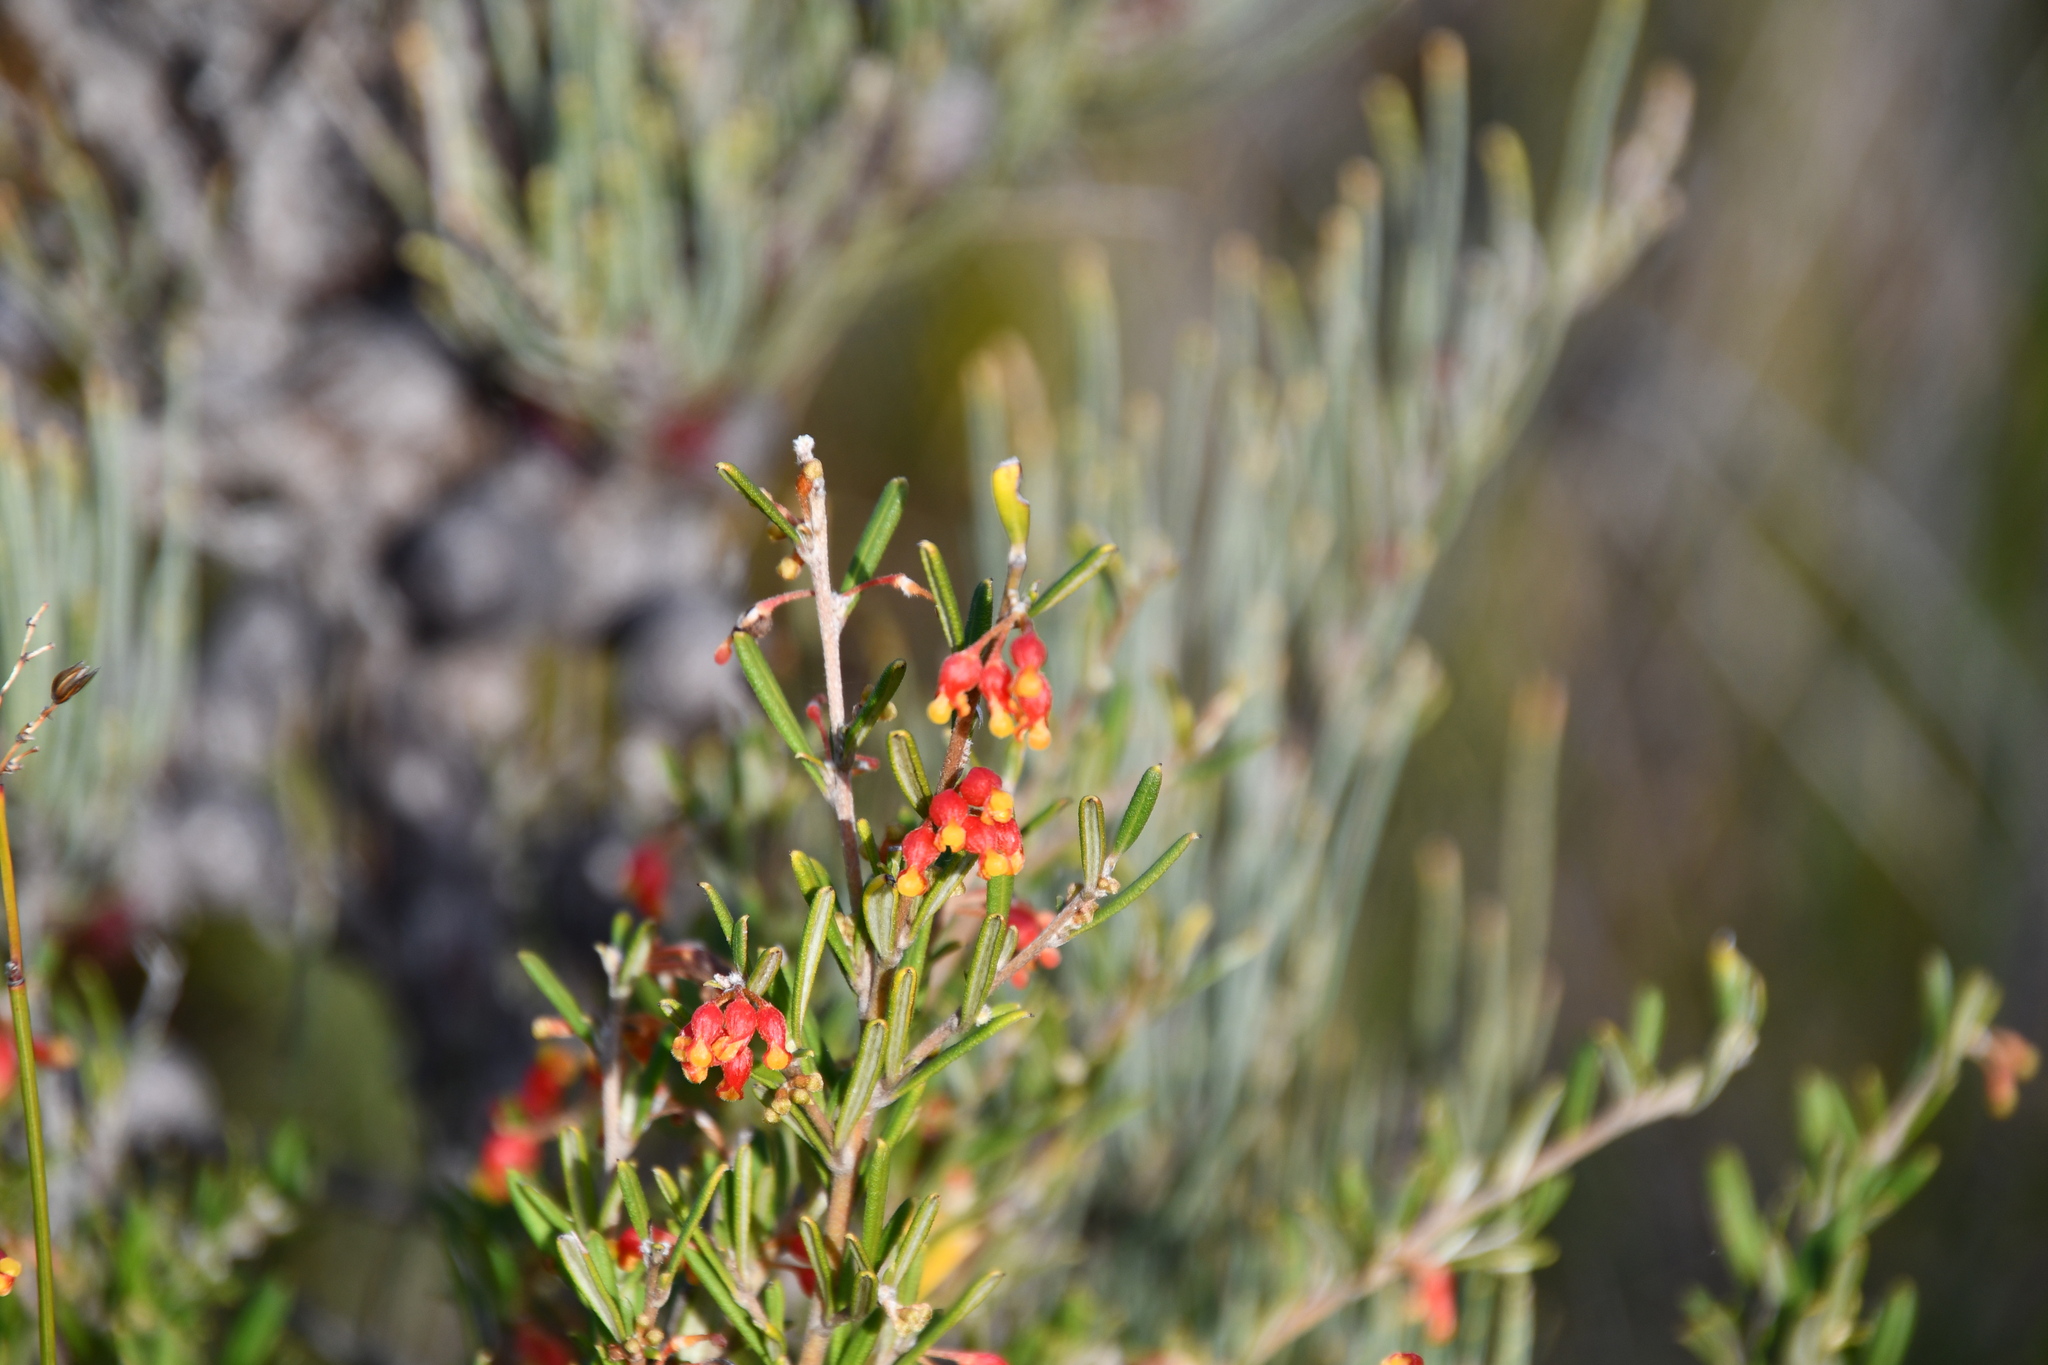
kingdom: Plantae
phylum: Tracheophyta
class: Magnoliopsida
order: Proteales
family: Proteaceae
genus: Grevillea
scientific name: Grevillea fasciculata
